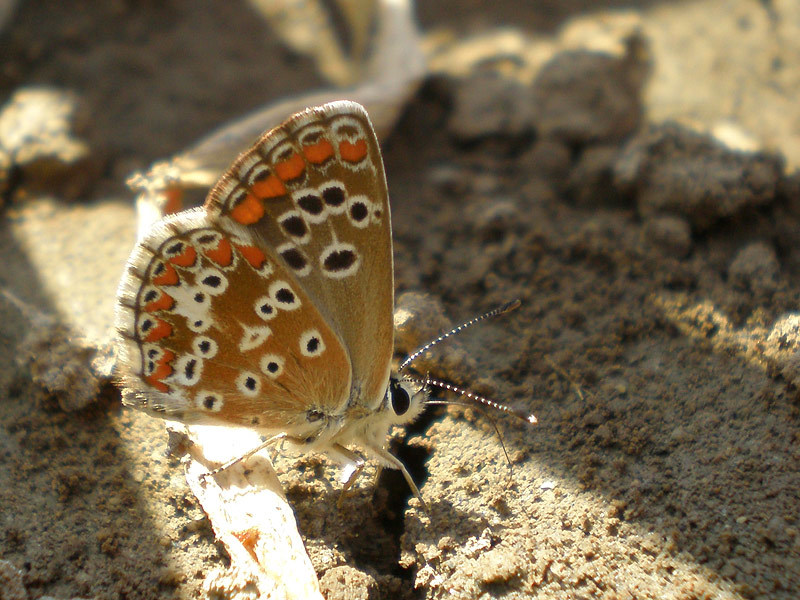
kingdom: Animalia
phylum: Arthropoda
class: Insecta
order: Lepidoptera
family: Lycaenidae
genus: Aricia
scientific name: Aricia cramera
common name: Eschscholtz´s brown  argus
